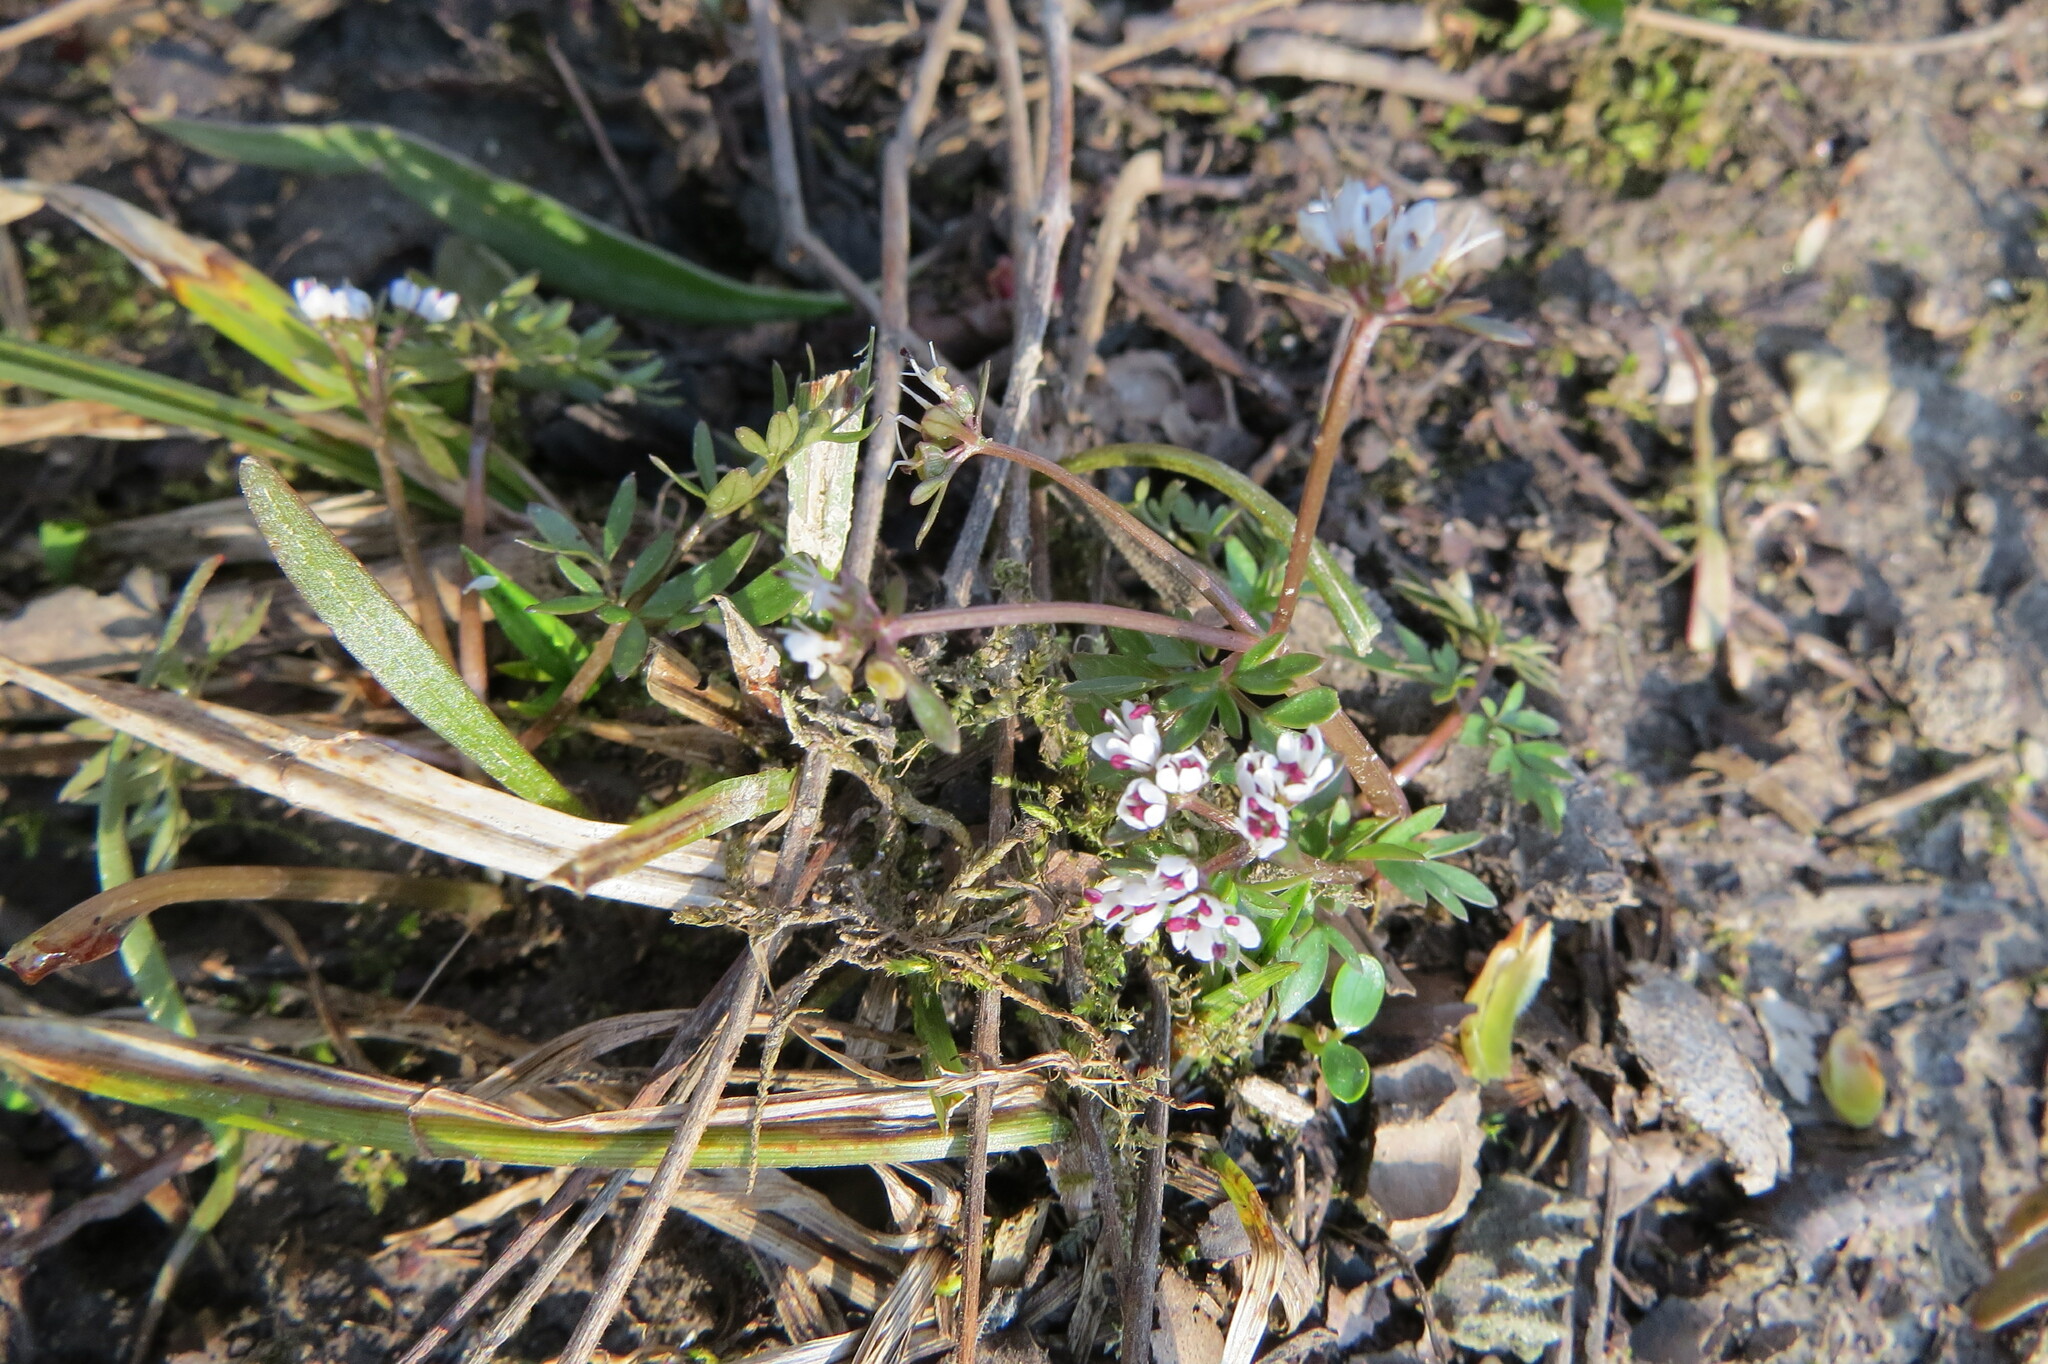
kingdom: Plantae
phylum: Tracheophyta
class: Magnoliopsida
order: Apiales
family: Apiaceae
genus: Erigenia
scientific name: Erigenia bulbosa
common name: Pepper-and-salt
